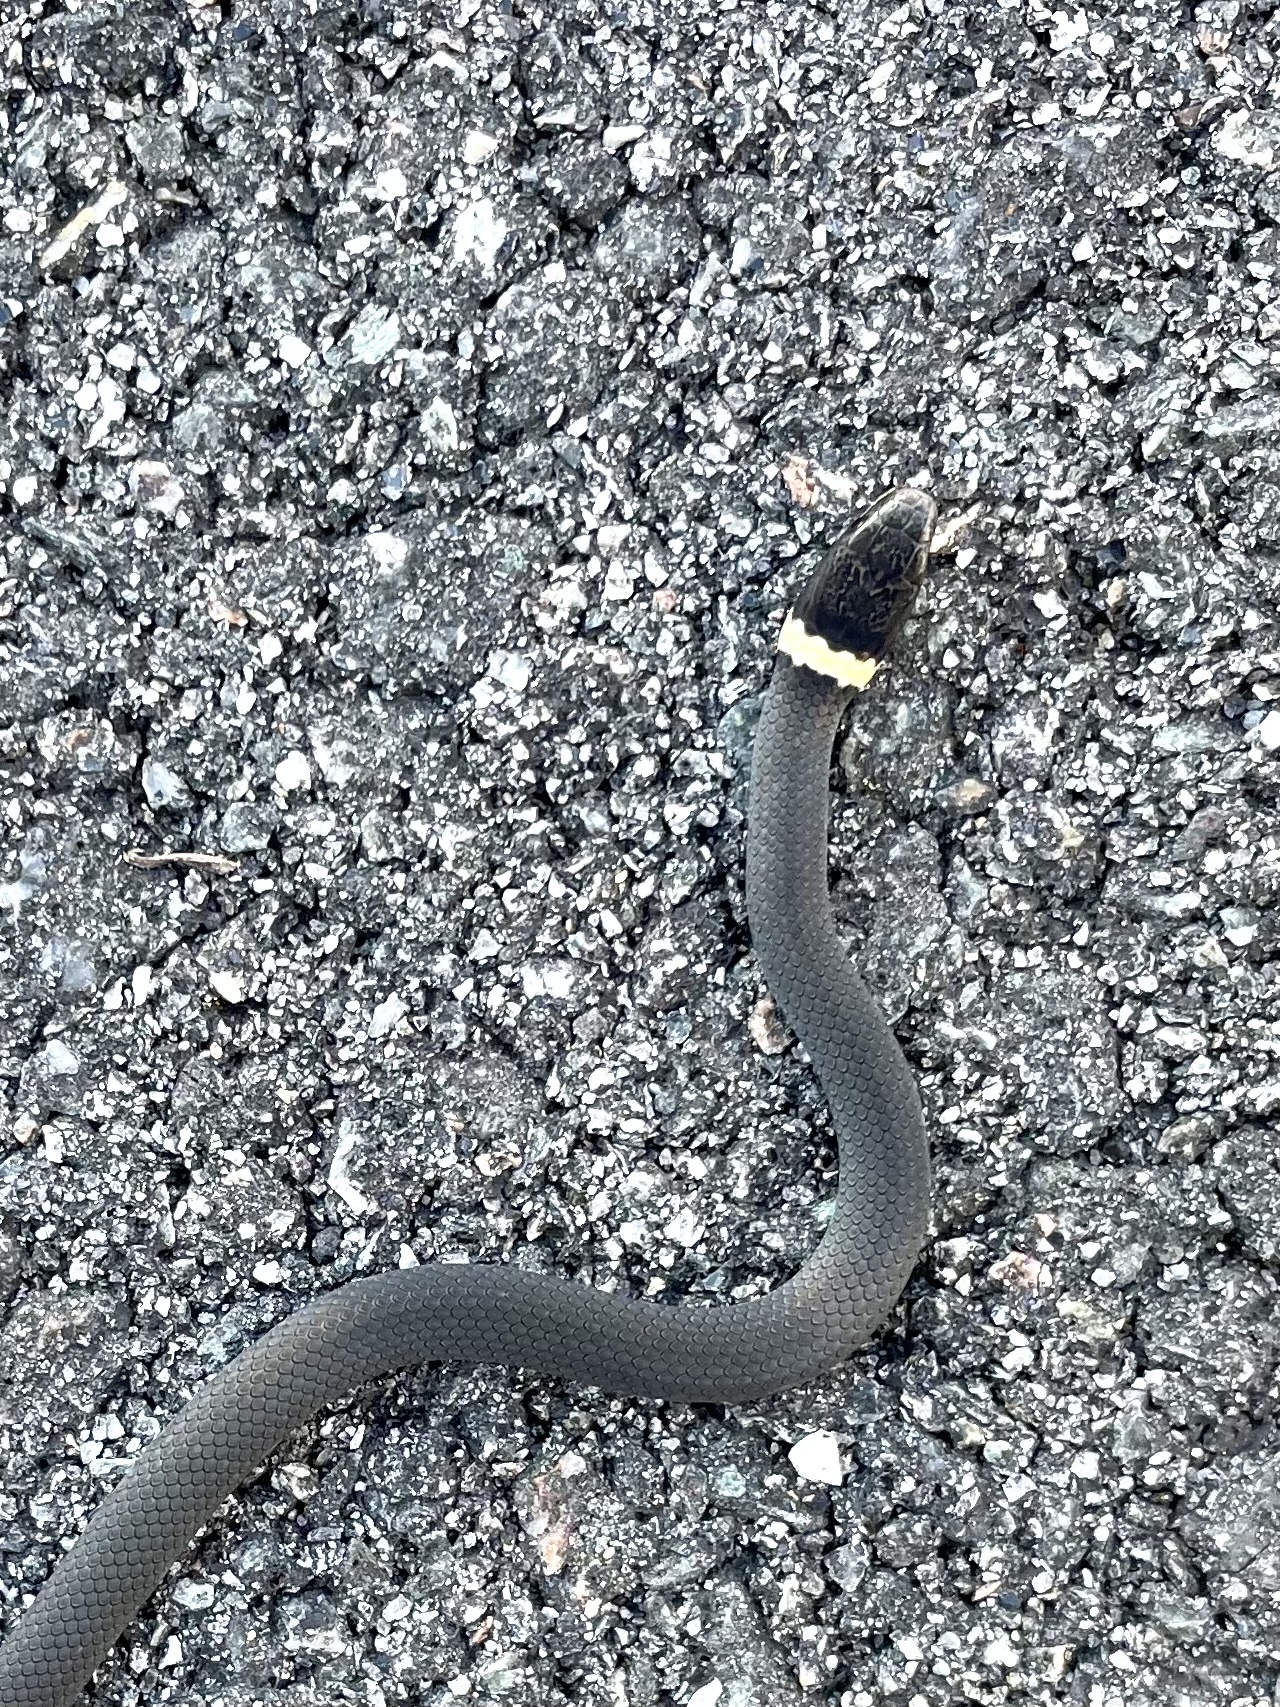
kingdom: Animalia
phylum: Chordata
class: Squamata
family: Colubridae
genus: Diadophis
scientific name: Diadophis punctatus
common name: Ringneck snake
